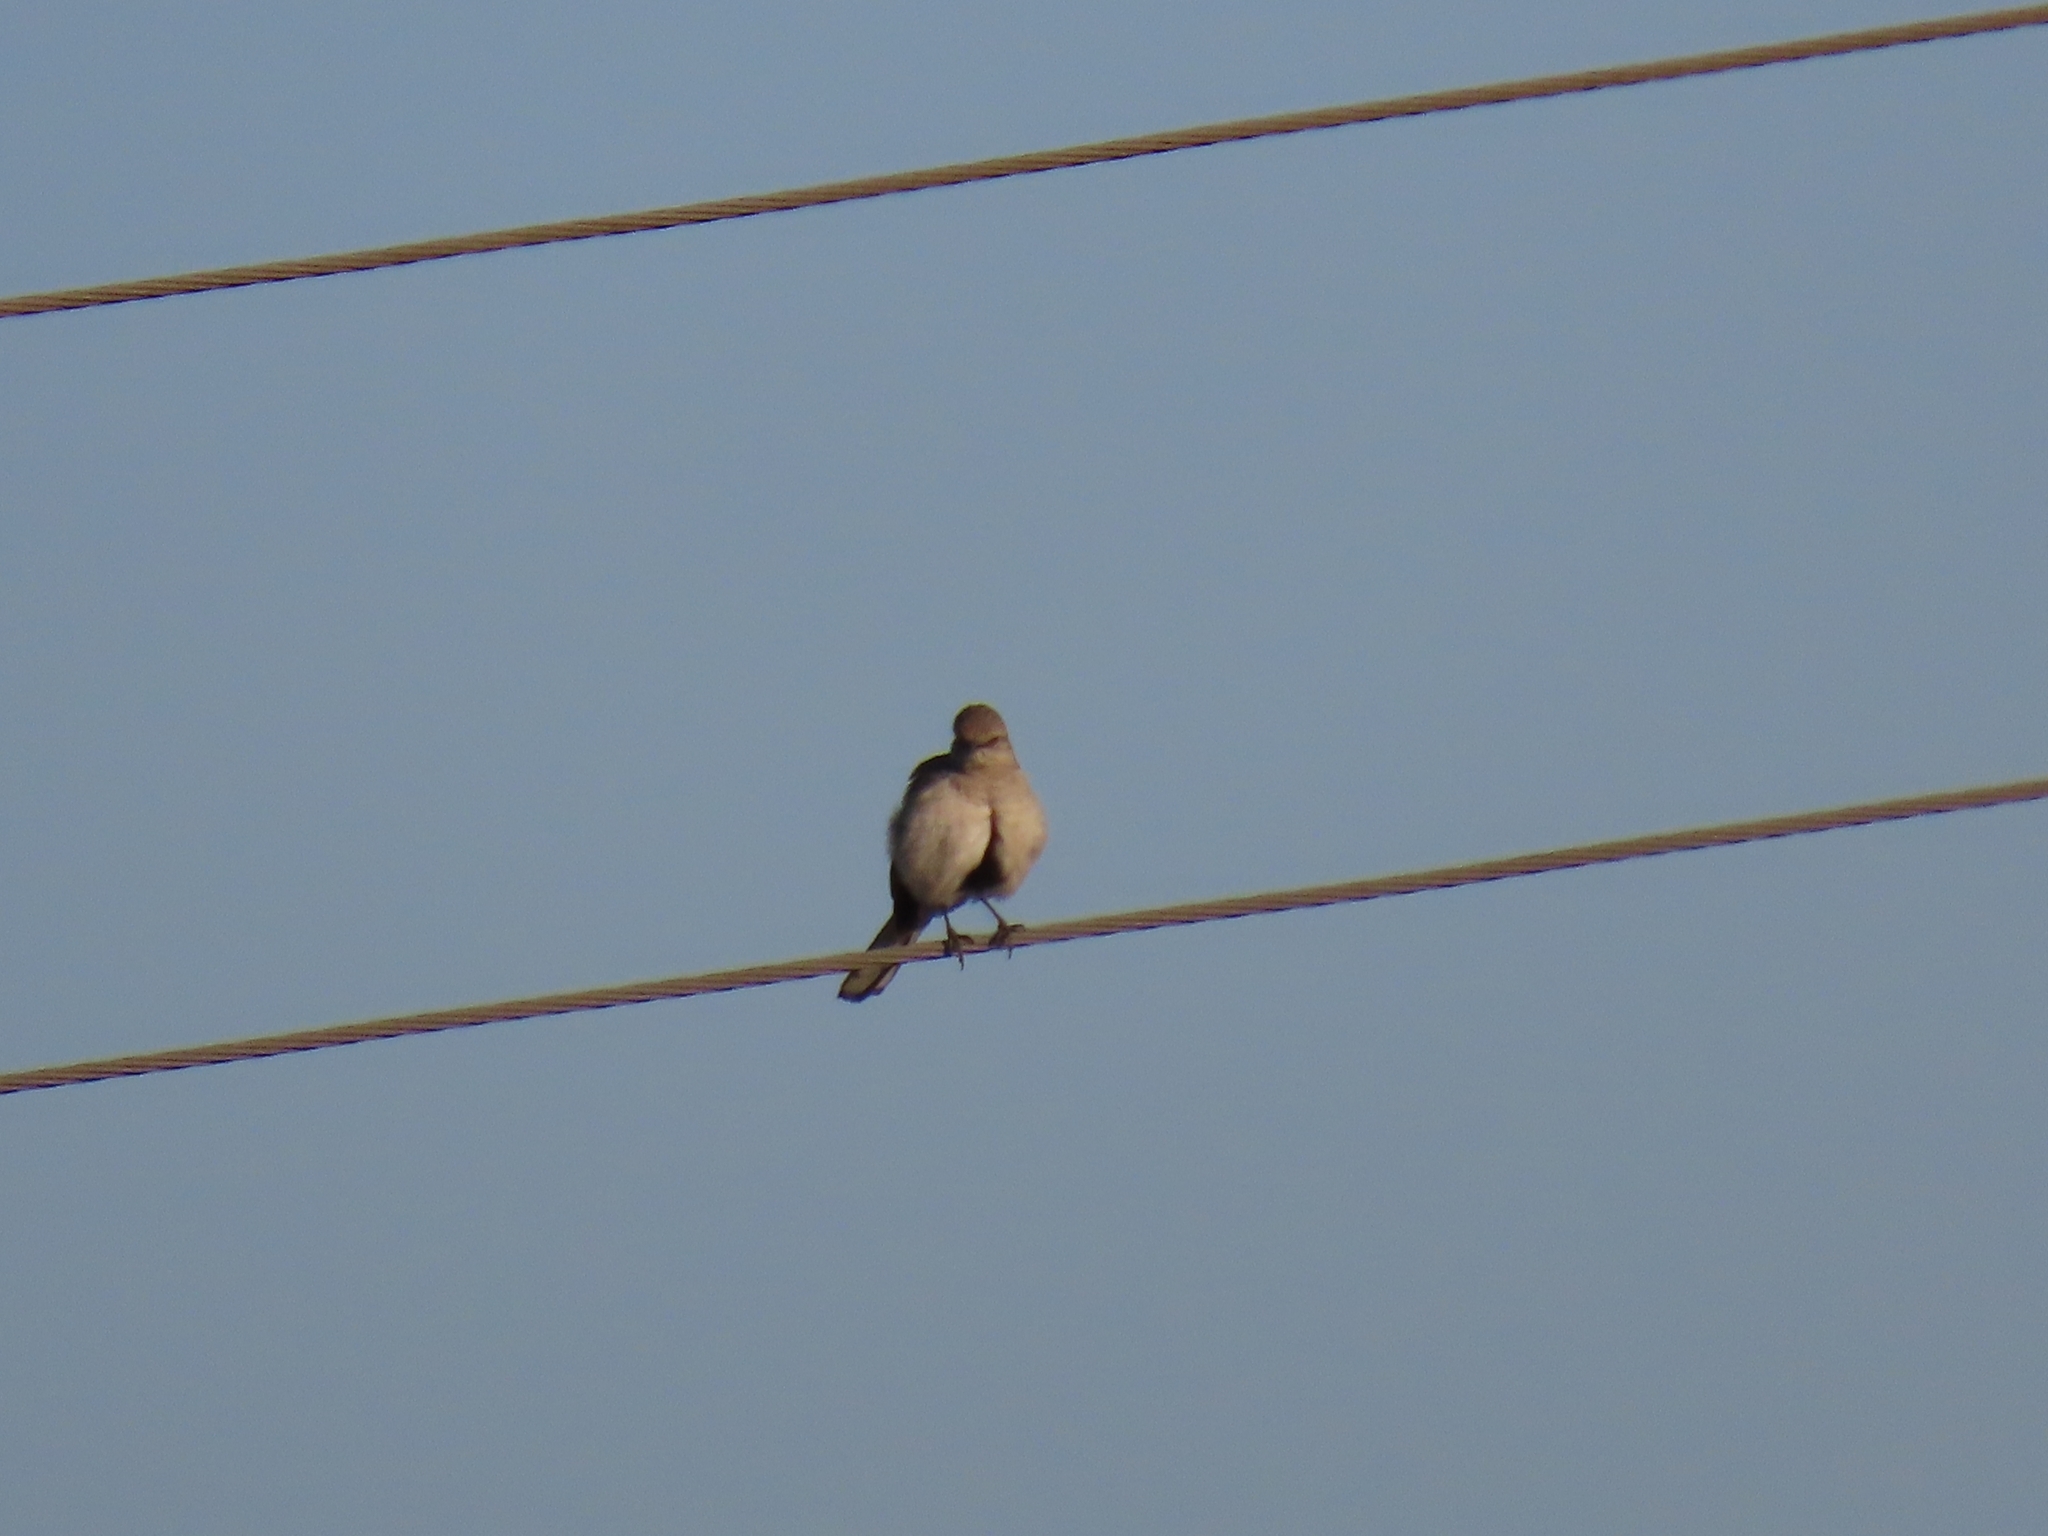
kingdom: Animalia
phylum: Chordata
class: Aves
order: Passeriformes
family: Mimidae
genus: Mimus
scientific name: Mimus polyglottos
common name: Northern mockingbird
